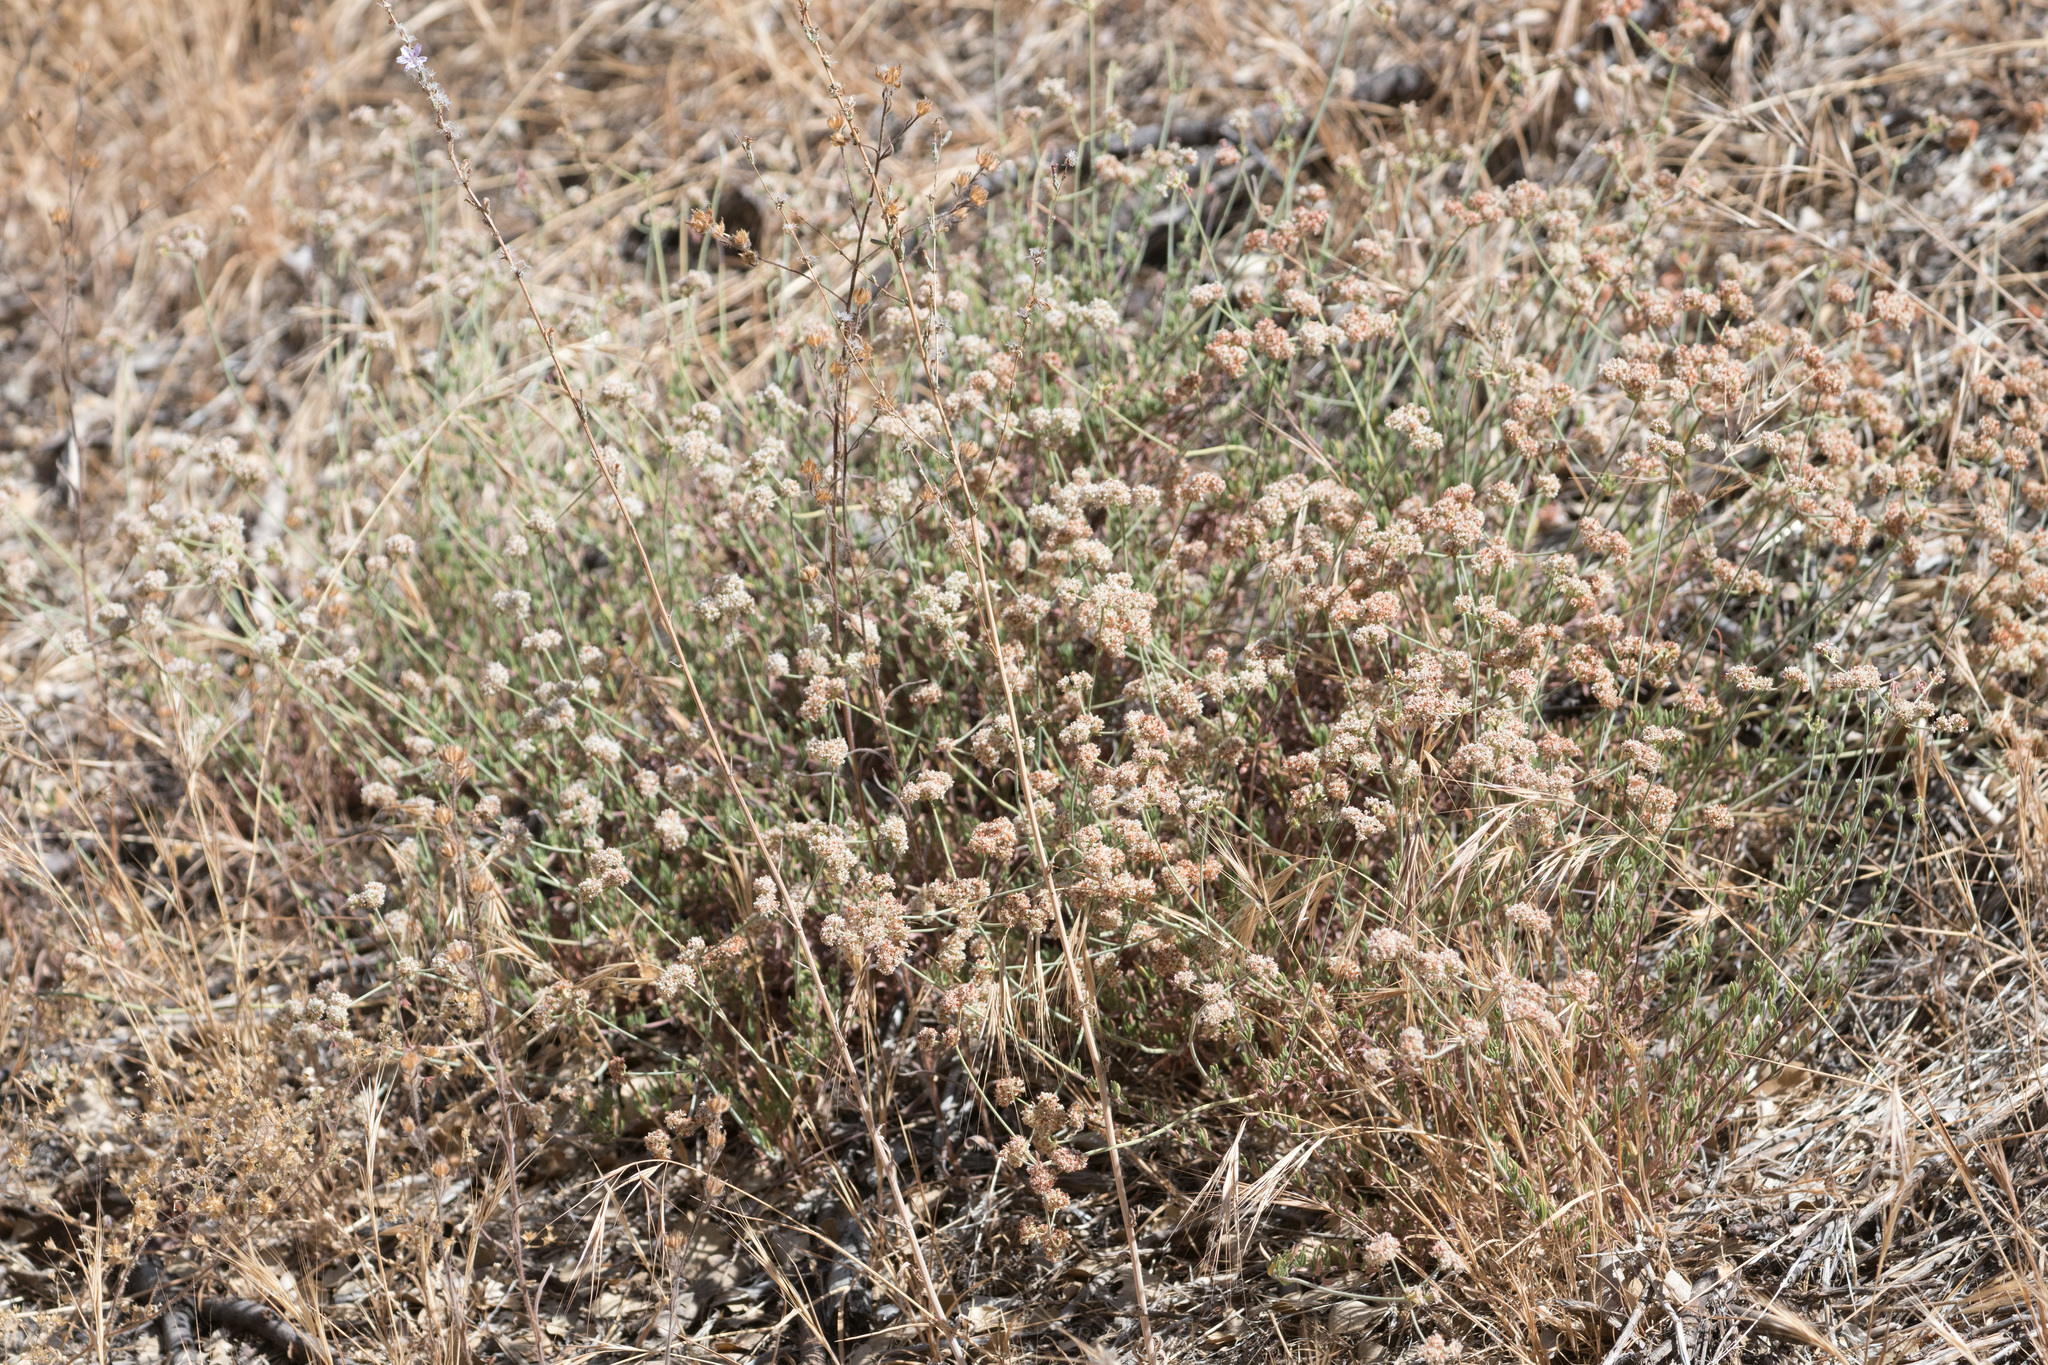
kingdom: Plantae
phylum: Tracheophyta
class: Magnoliopsida
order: Caryophyllales
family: Polygonaceae
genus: Eriogonum
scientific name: Eriogonum fasciculatum
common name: California wild buckwheat
